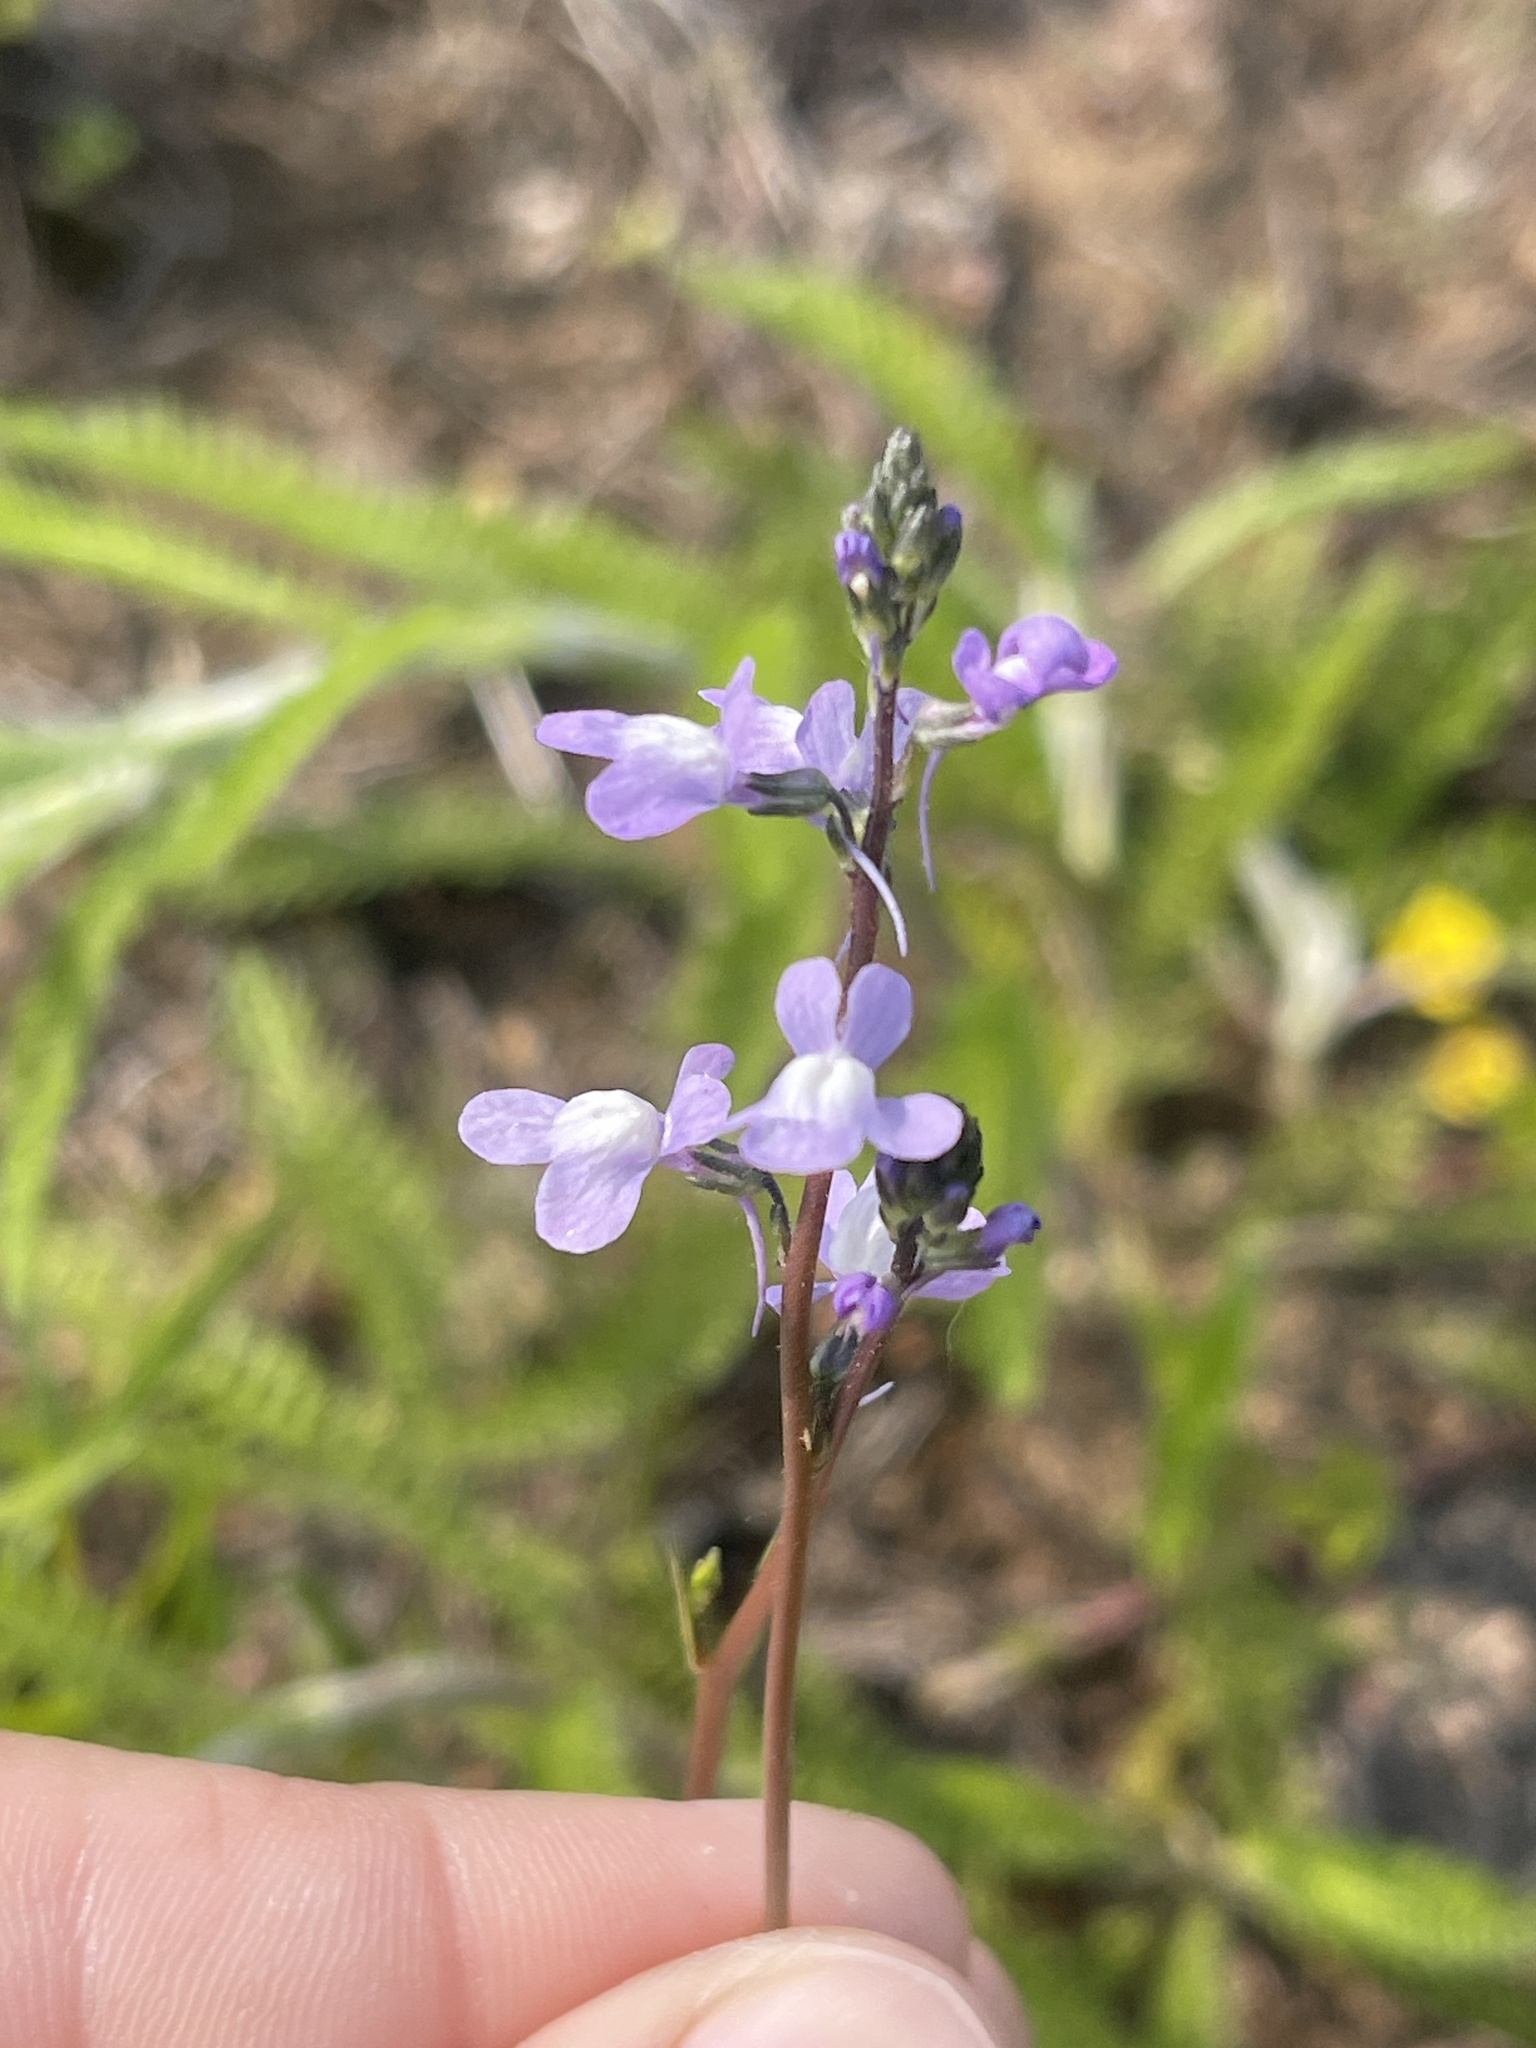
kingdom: Plantae
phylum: Tracheophyta
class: Magnoliopsida
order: Lamiales
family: Plantaginaceae
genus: Nuttallanthus
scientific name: Nuttallanthus canadensis
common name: Blue toadflax
